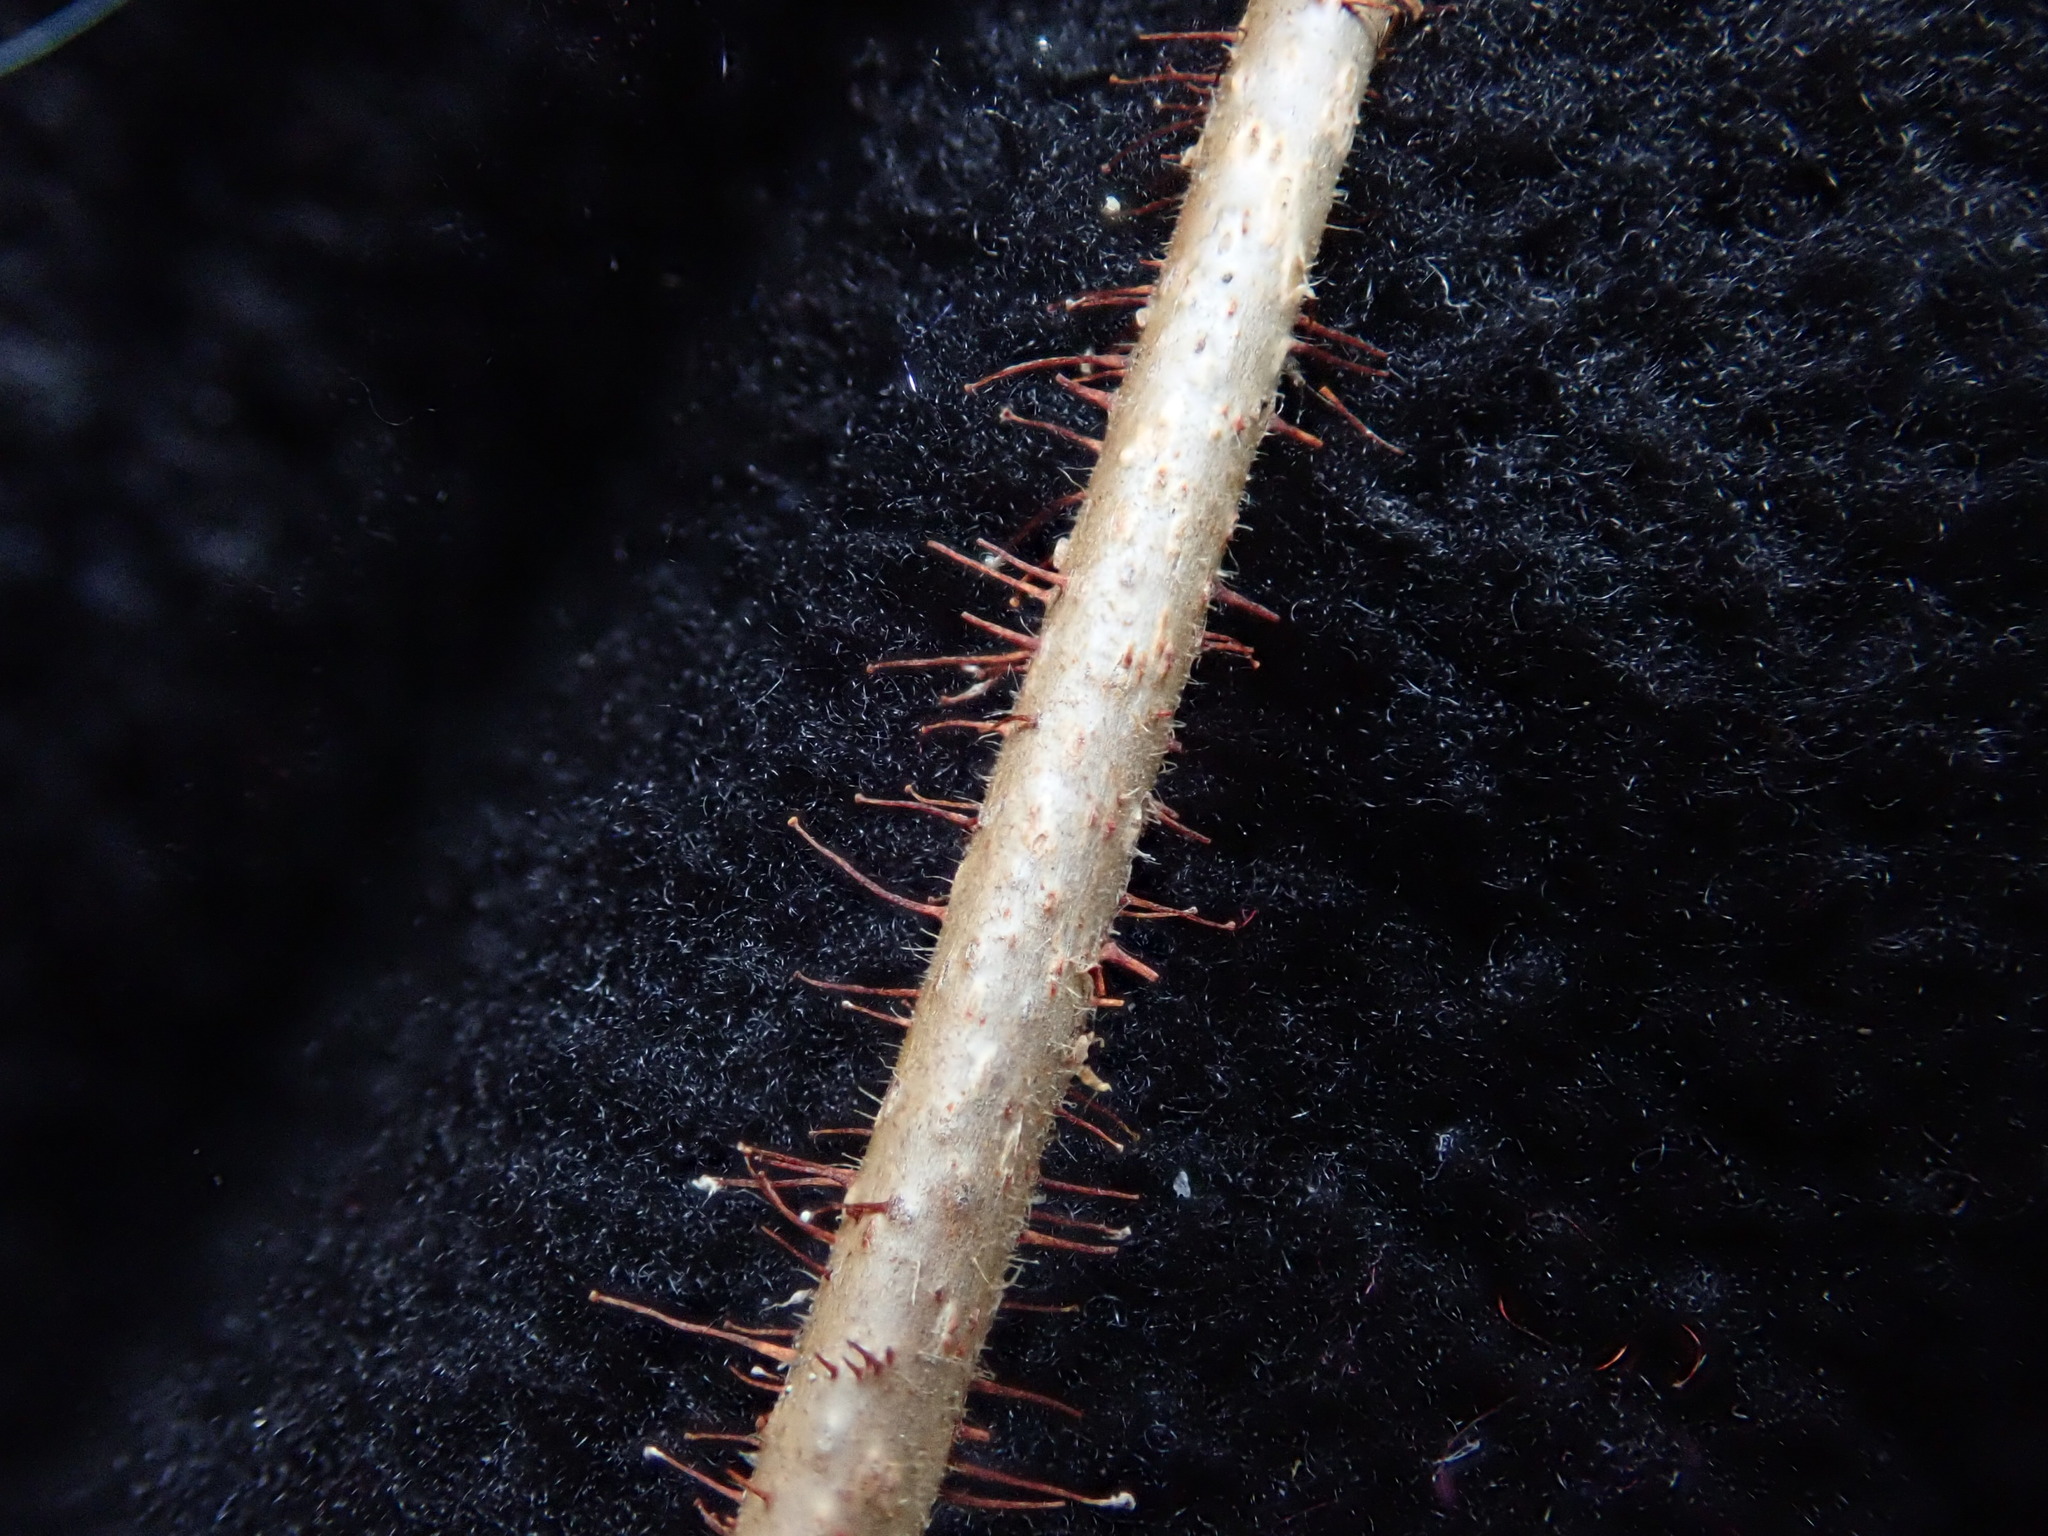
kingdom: Plantae
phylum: Tracheophyta
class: Magnoliopsida
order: Fagales
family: Betulaceae
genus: Corylus
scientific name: Corylus americana
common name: American hazel
